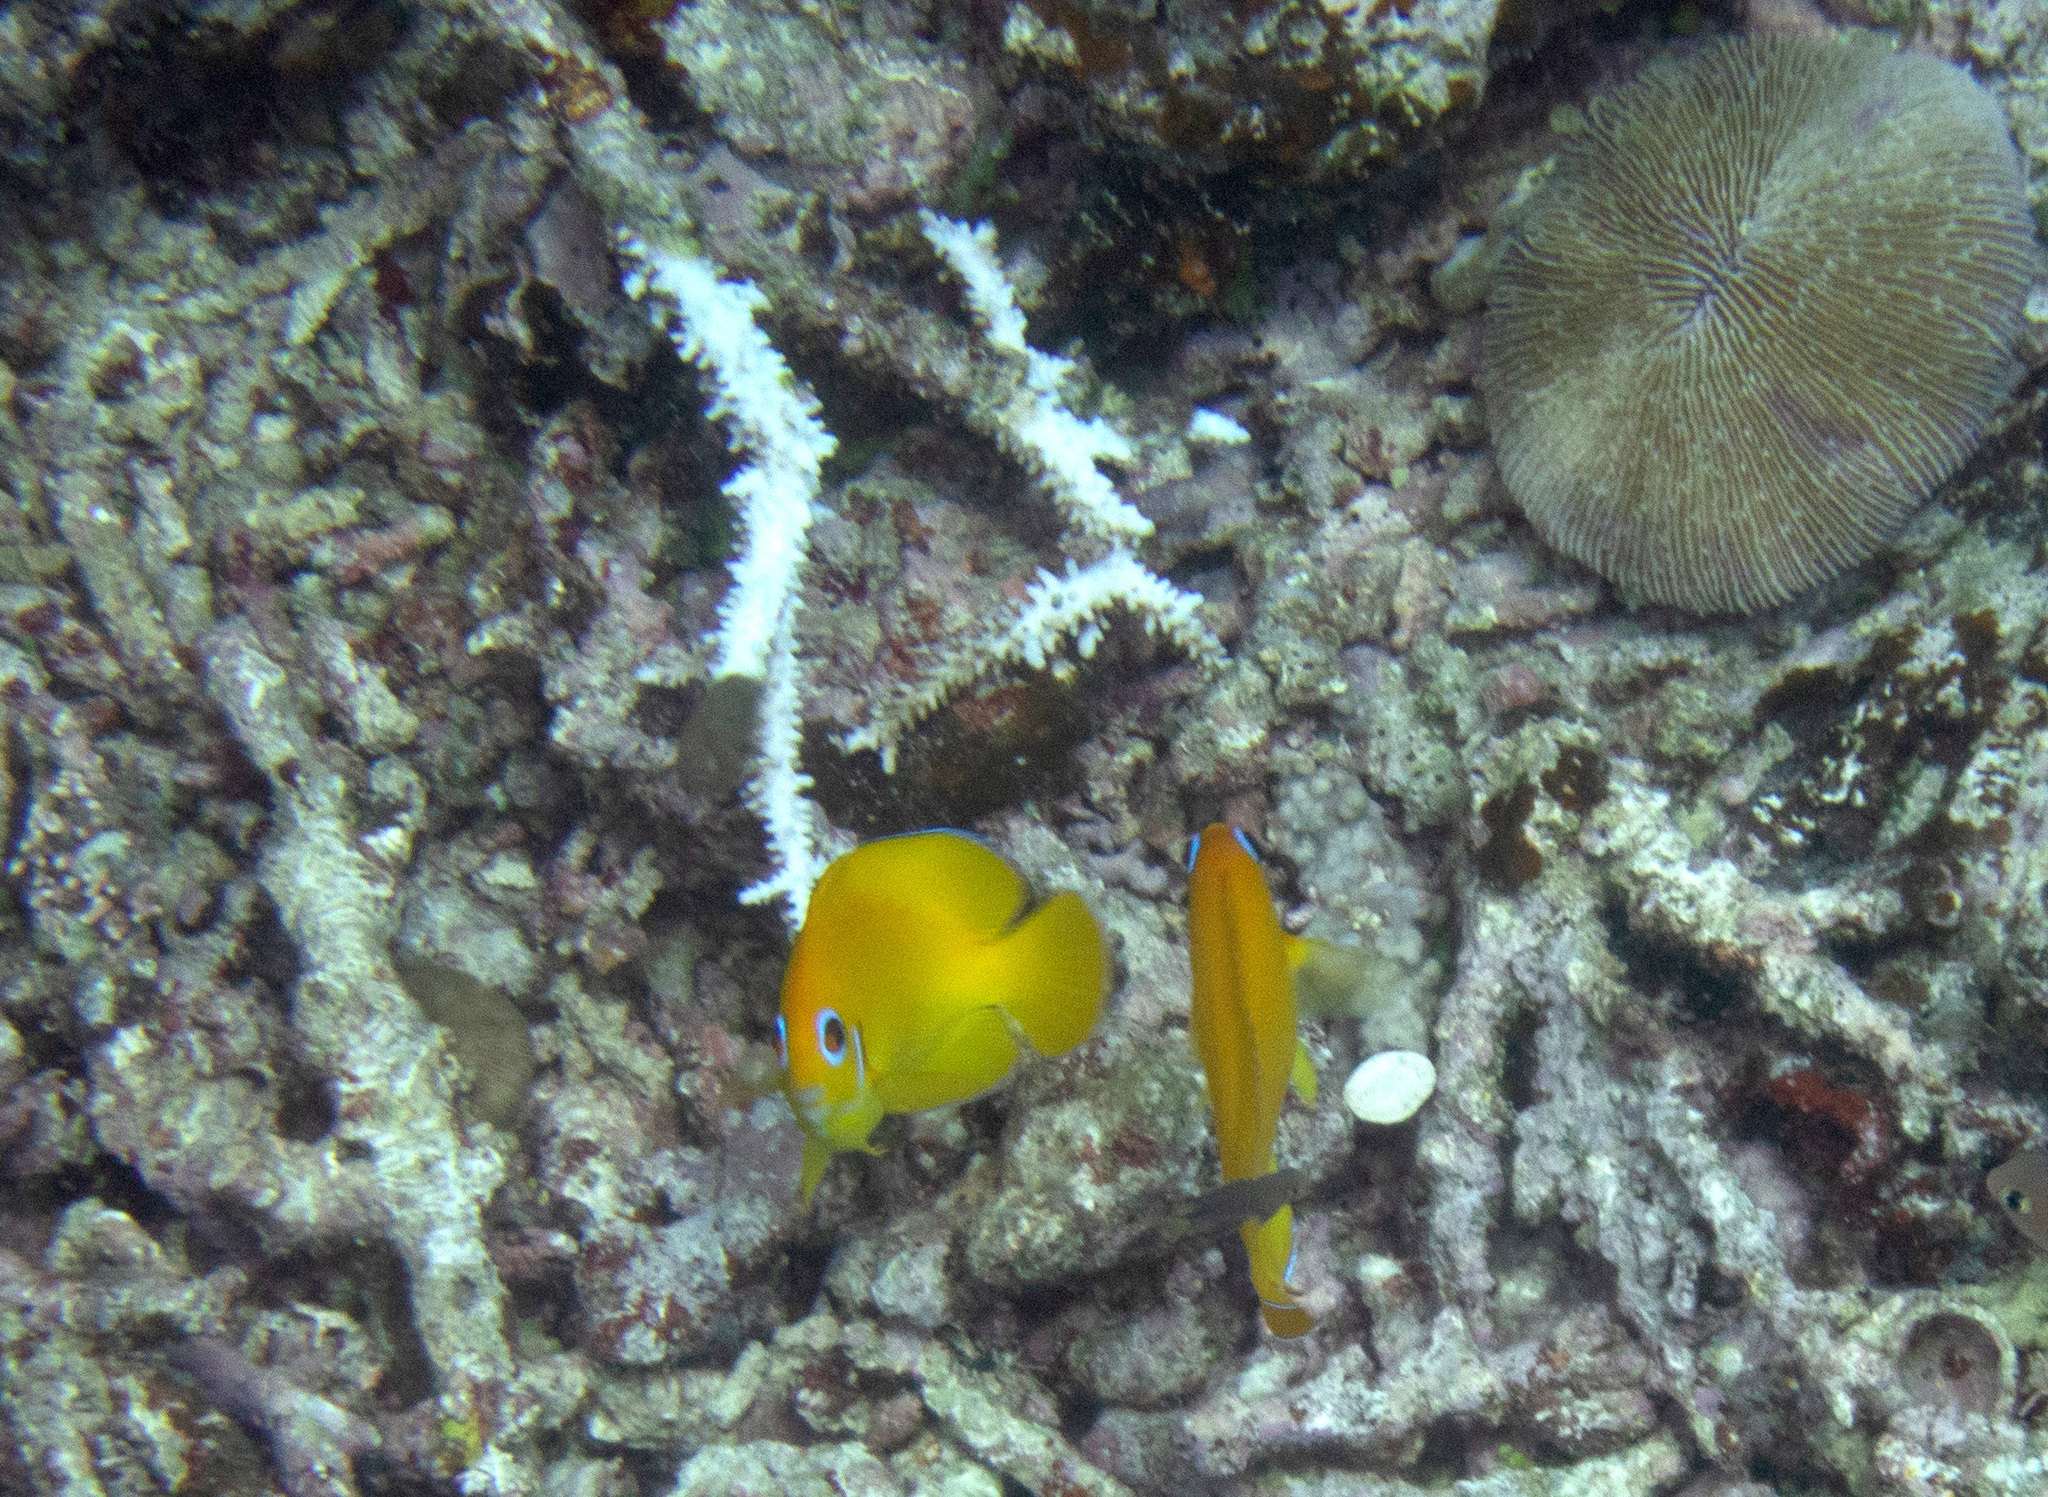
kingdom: Animalia
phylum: Chordata
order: Perciformes
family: Pomacanthidae
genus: Centropyge
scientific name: Centropyge flavissima
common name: Lemonpeel angelfish
